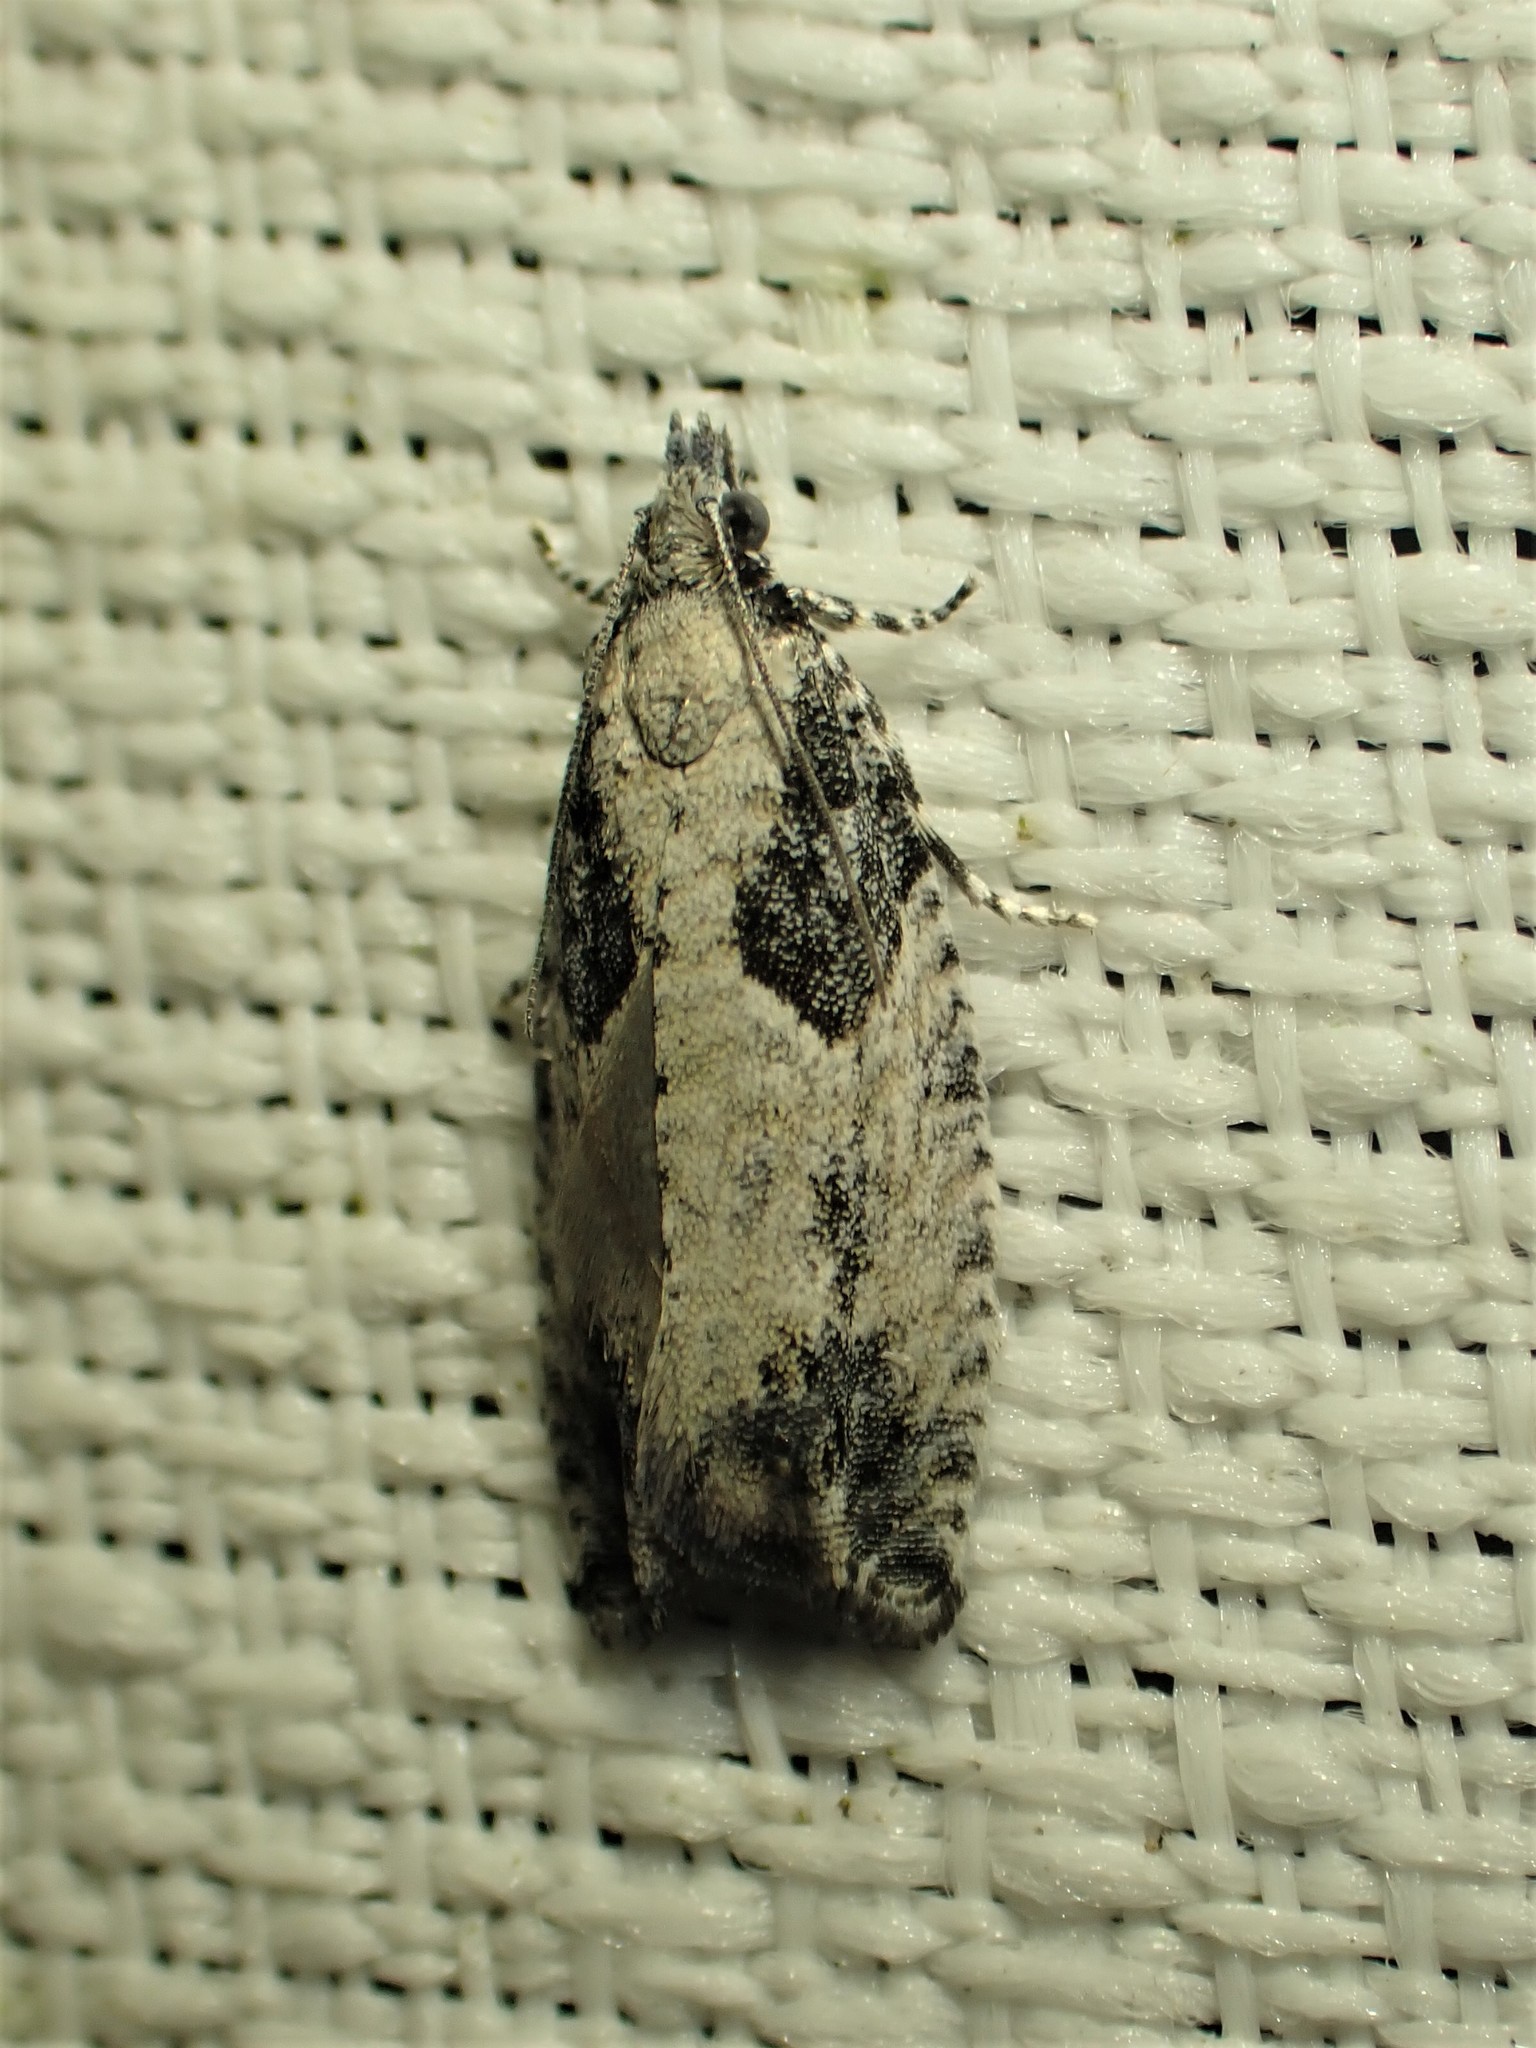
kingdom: Animalia
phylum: Arthropoda
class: Insecta
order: Lepidoptera
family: Tortricidae
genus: Epinotia
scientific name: Epinotia cinereana
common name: Grey aspen bell
